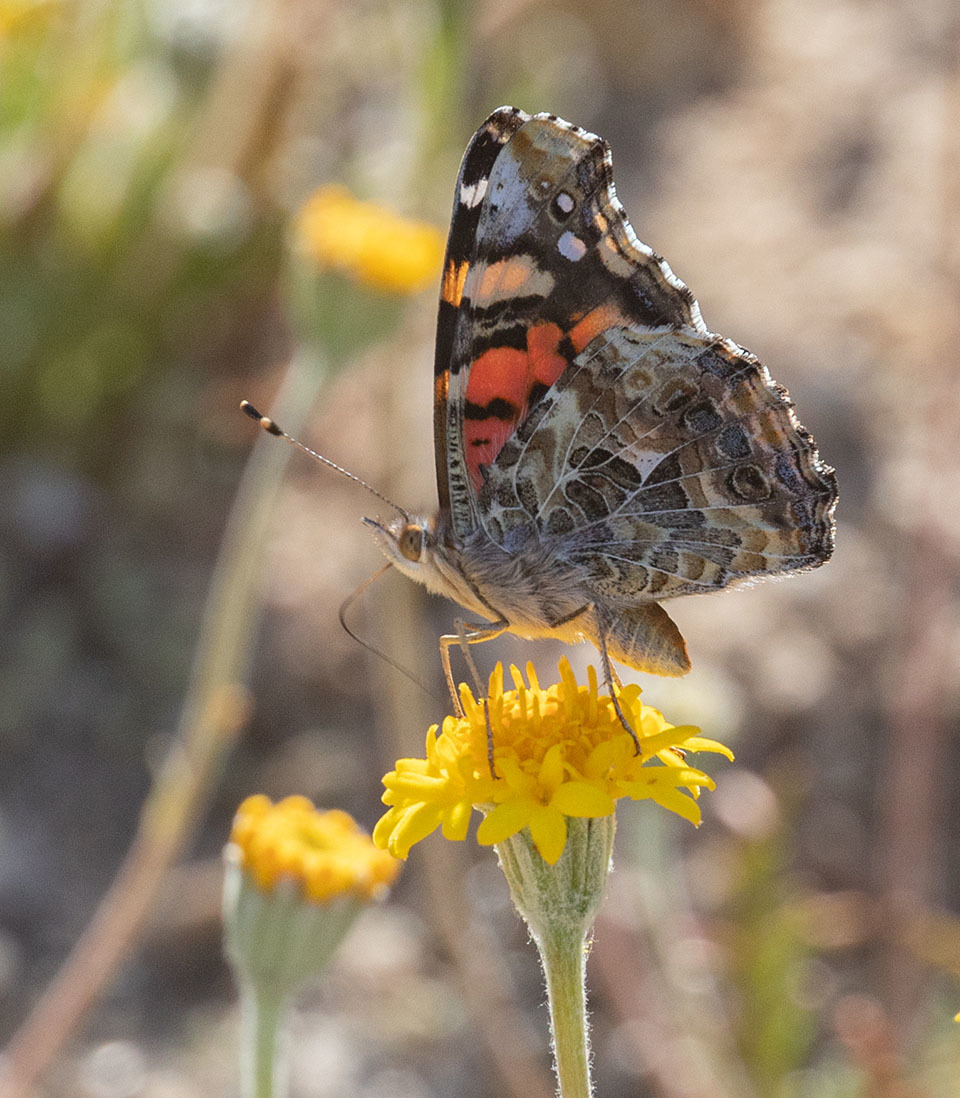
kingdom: Animalia
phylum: Arthropoda
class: Insecta
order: Lepidoptera
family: Nymphalidae
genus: Vanessa
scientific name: Vanessa annabella
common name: West coast lady
